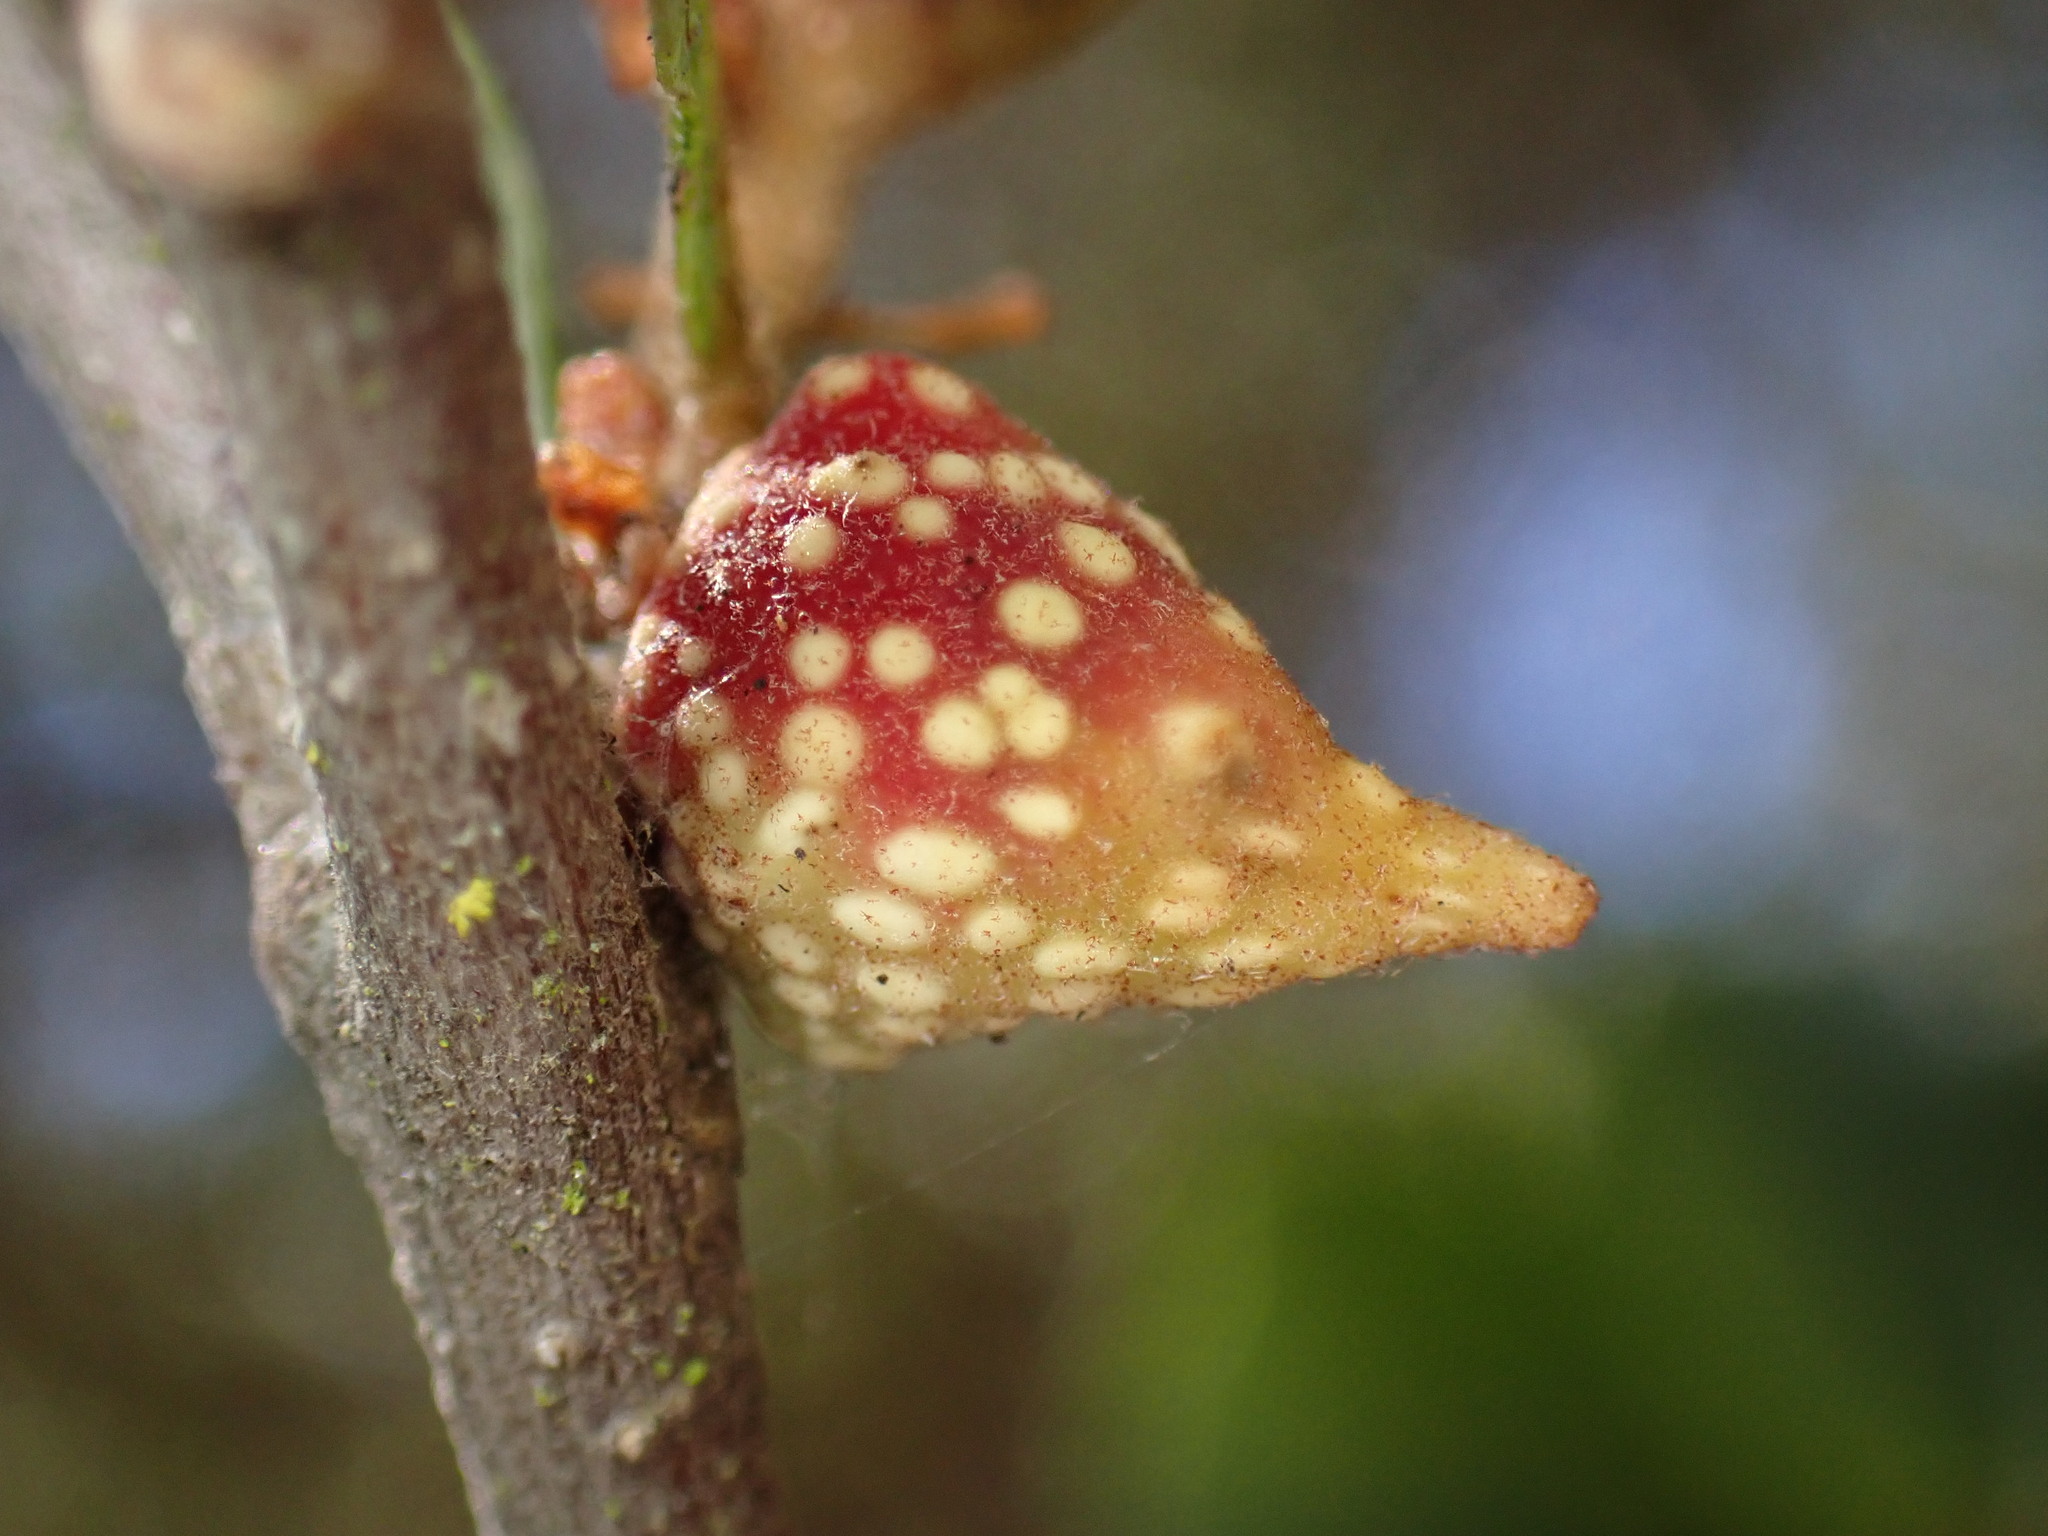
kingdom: Animalia
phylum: Arthropoda
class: Insecta
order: Hymenoptera
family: Cynipidae
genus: Burnettweldia
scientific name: Burnettweldia
